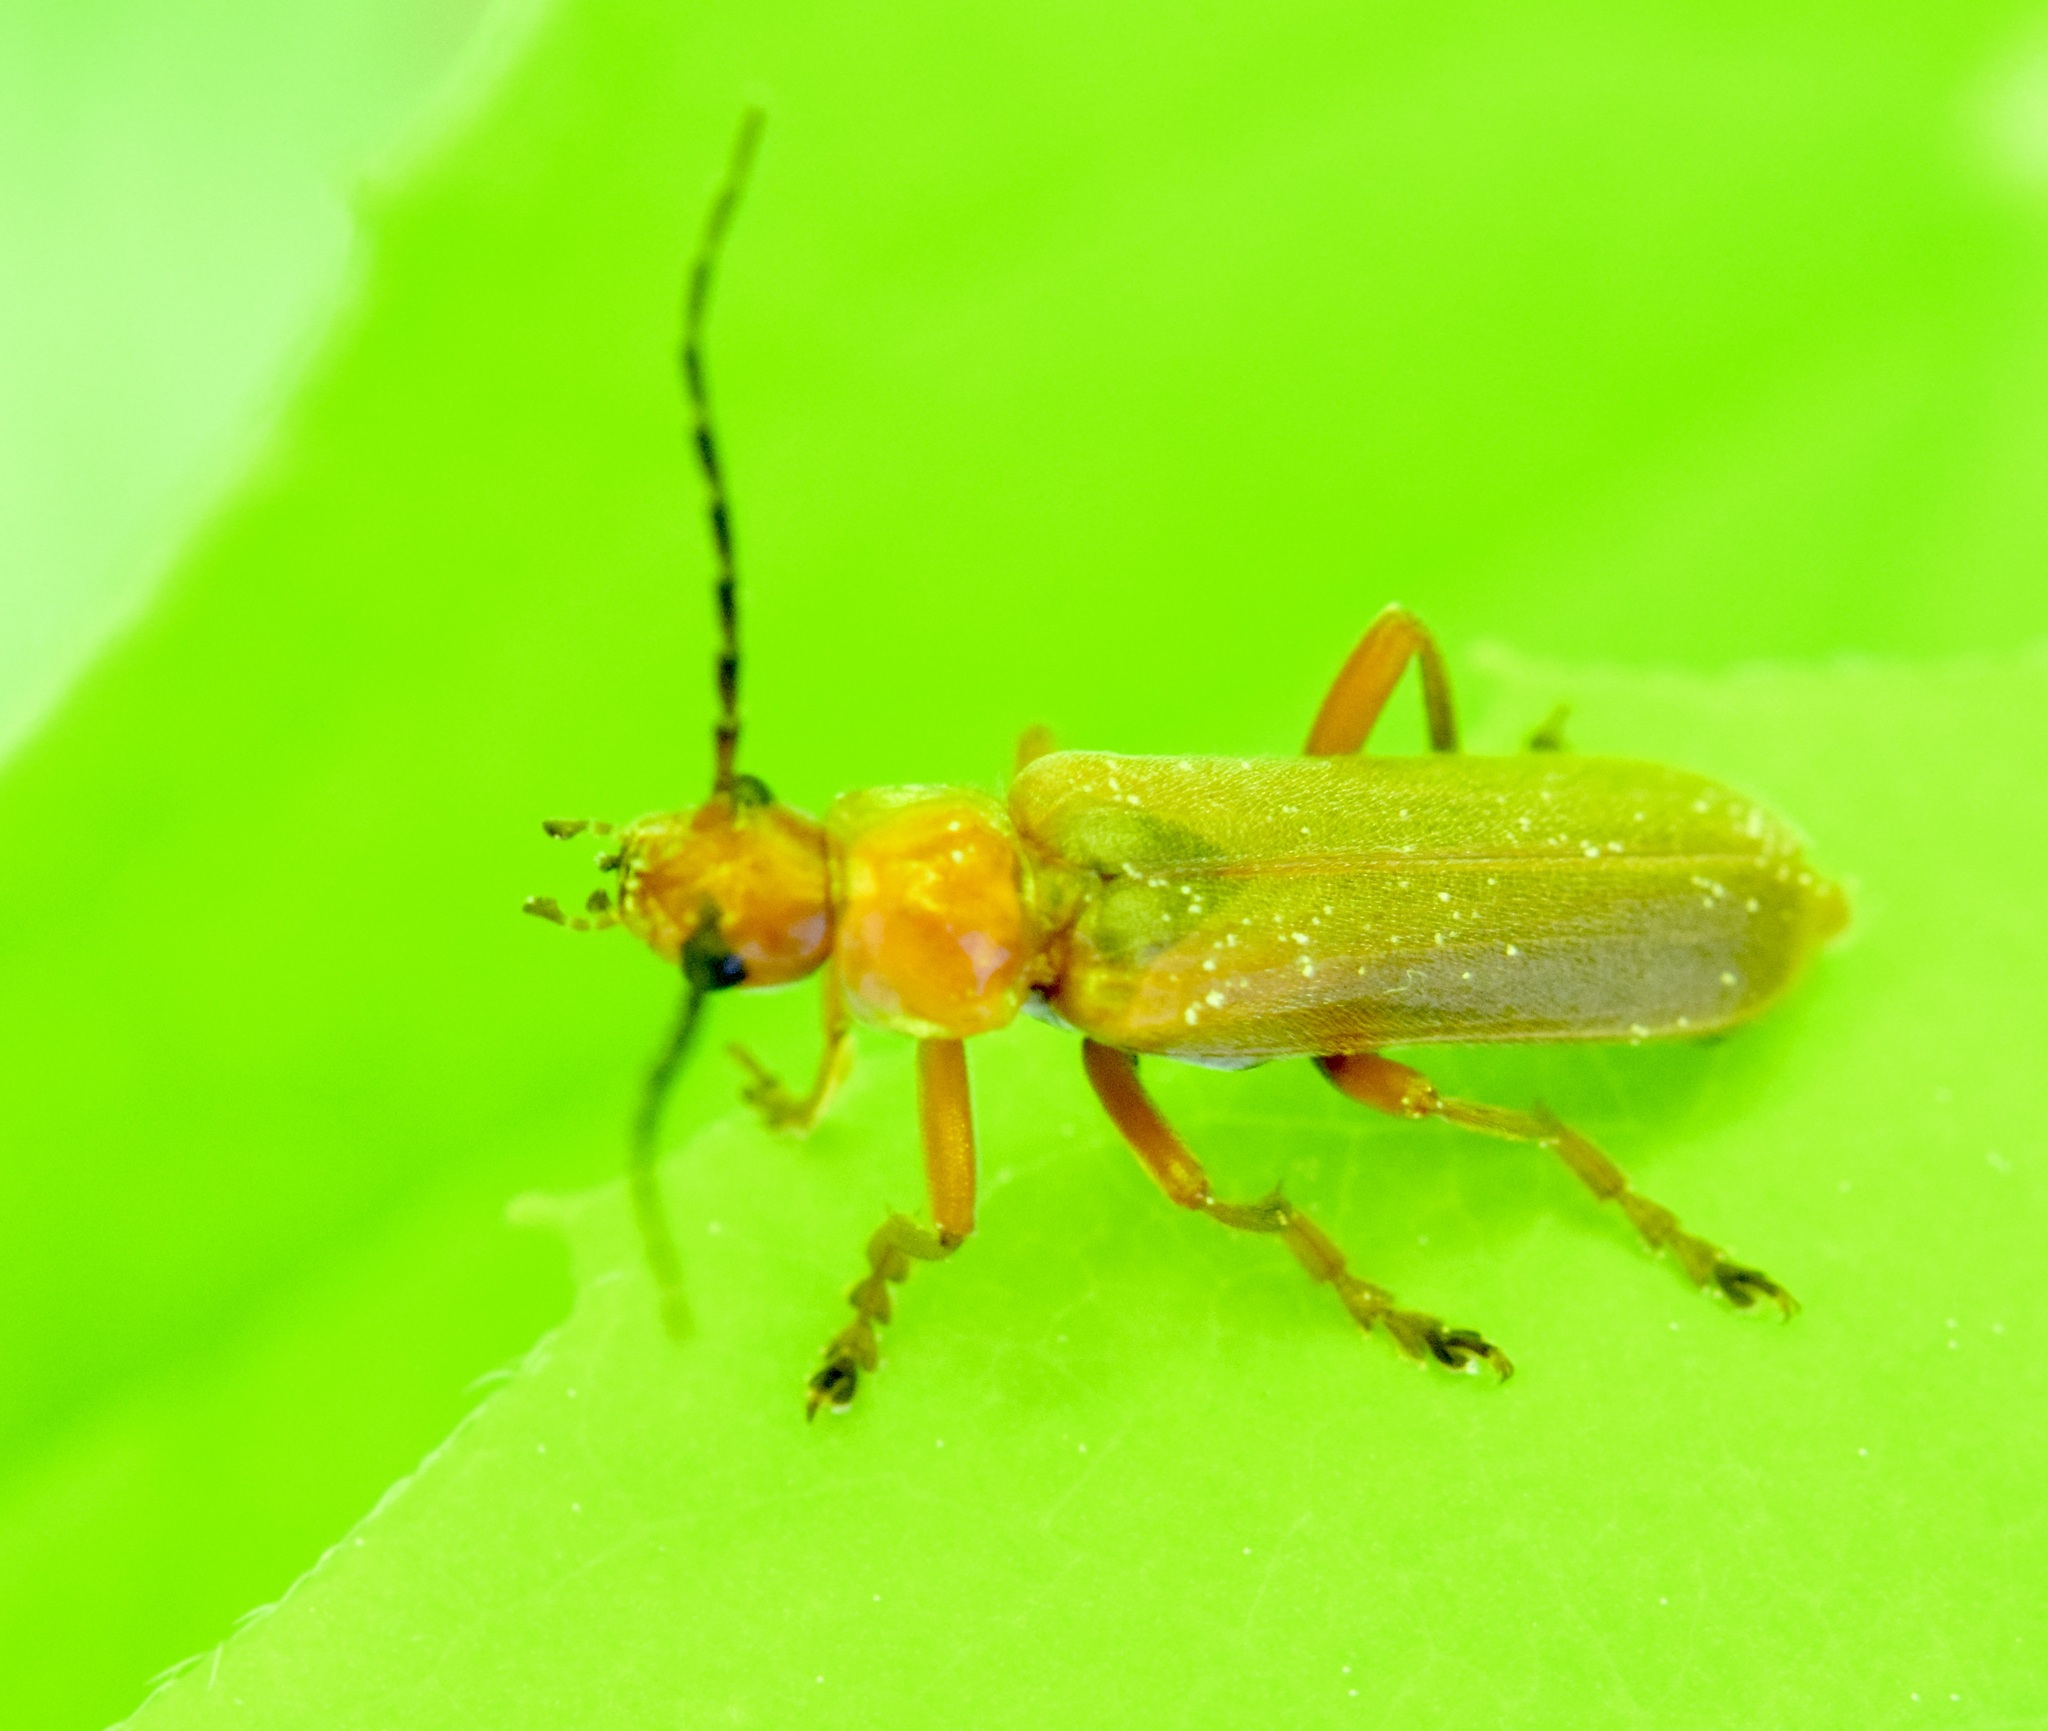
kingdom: Animalia
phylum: Arthropoda
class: Insecta
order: Coleoptera
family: Cantharidae
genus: Cantharis
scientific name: Cantharis rufa
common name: Red-spotted soldier beetle
